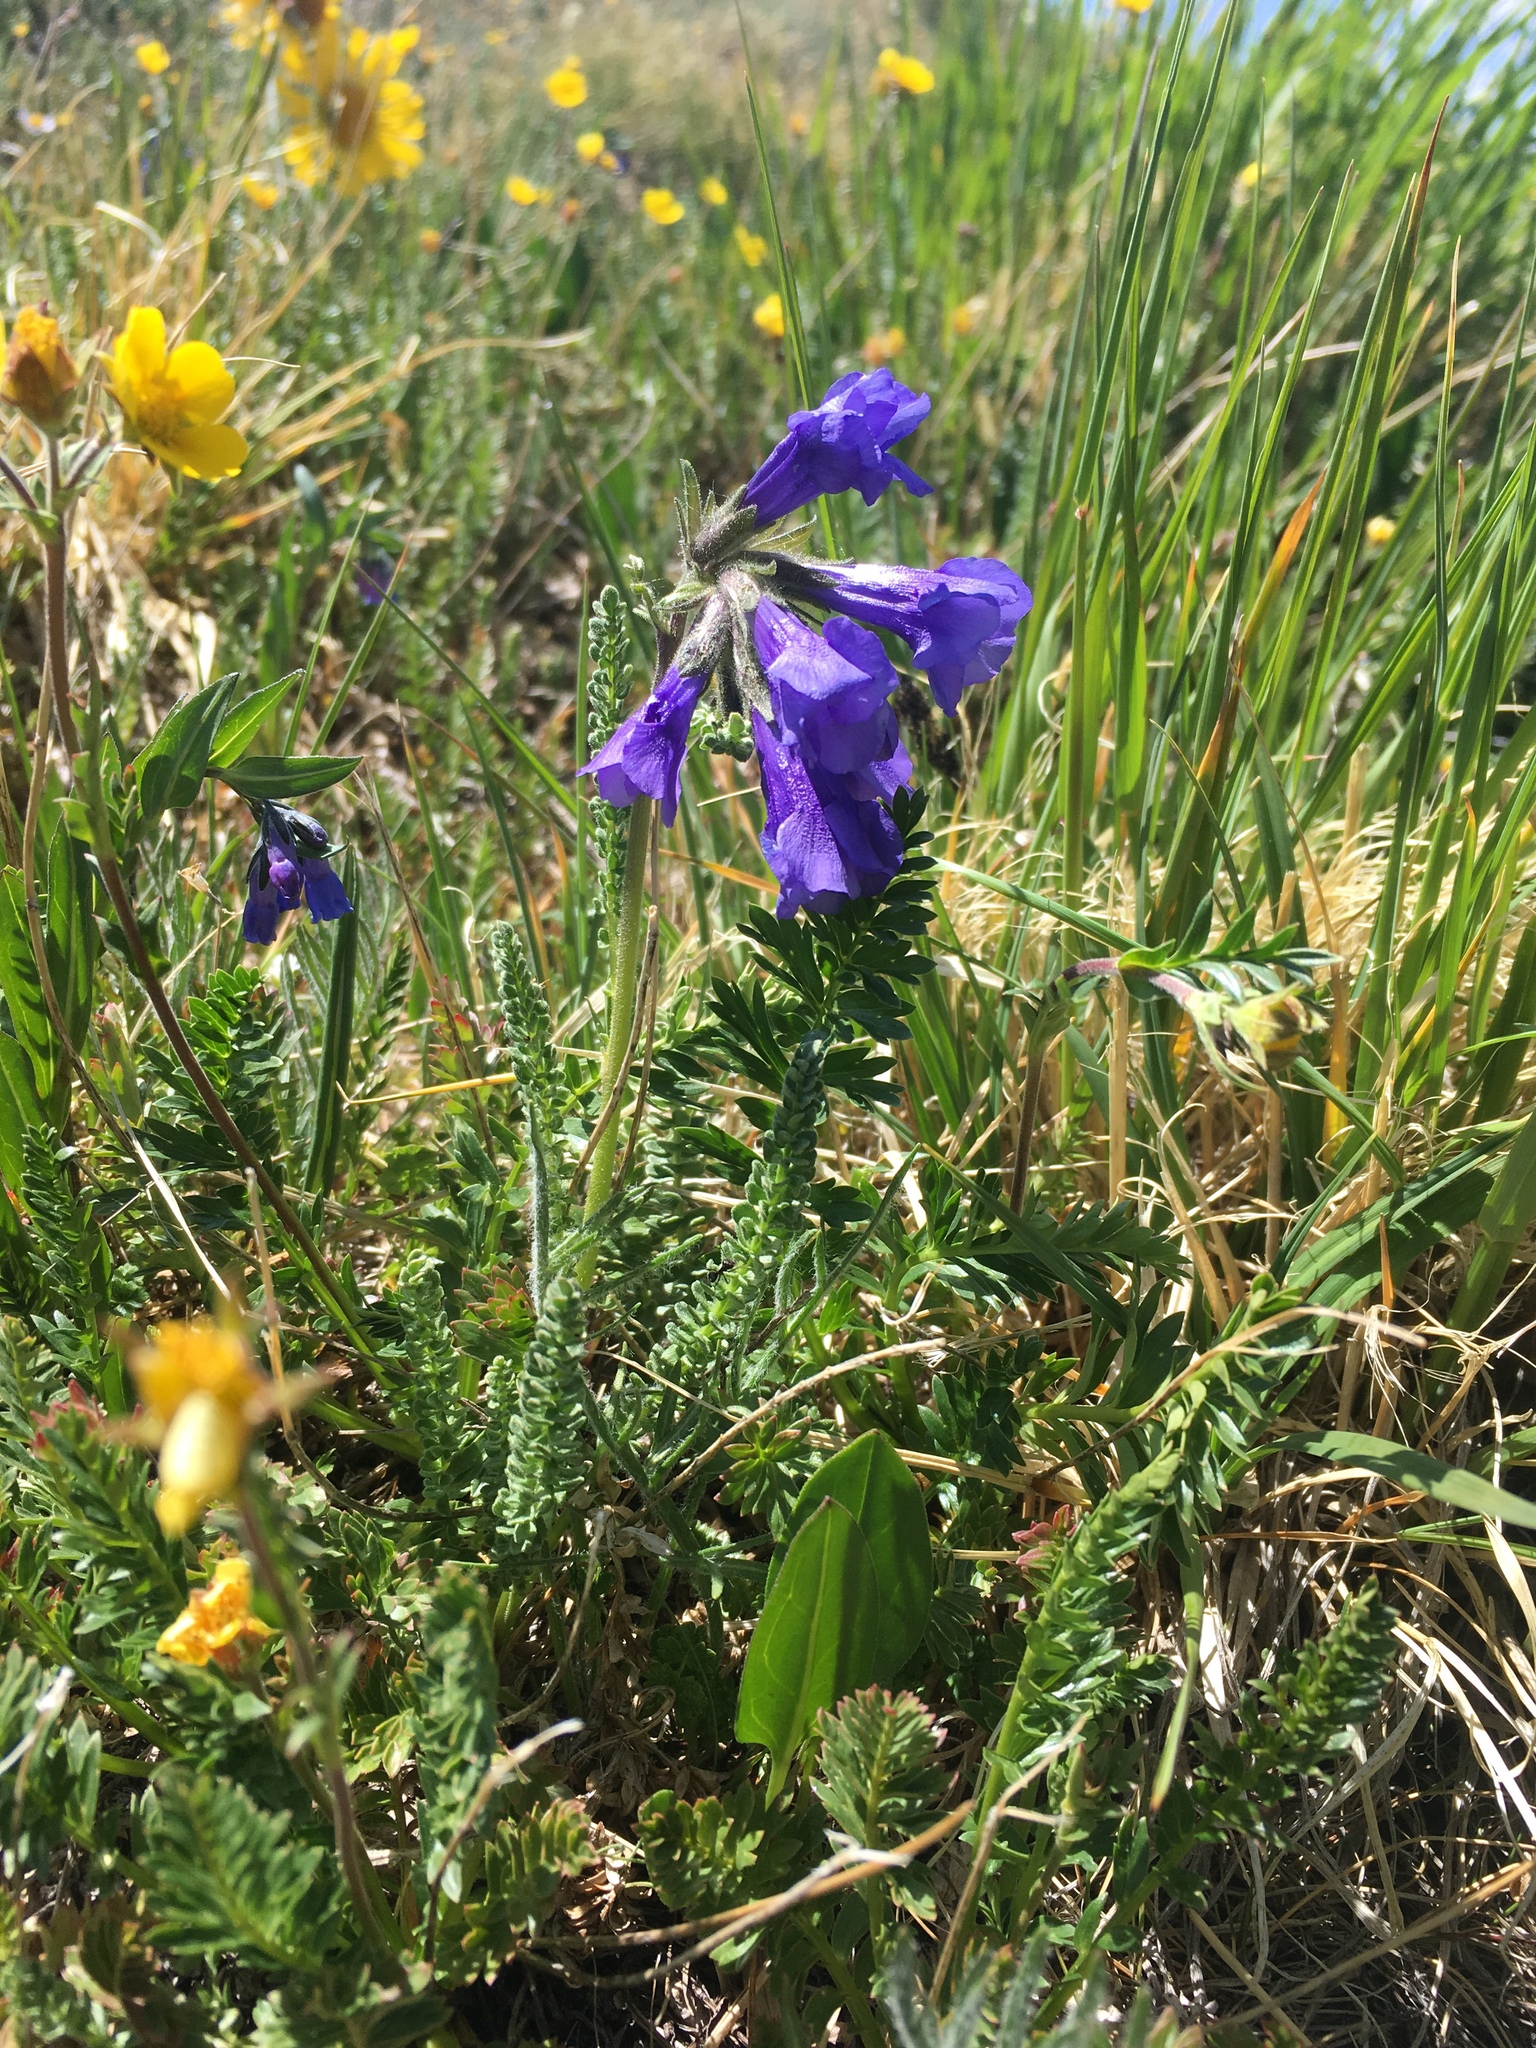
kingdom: Plantae
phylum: Tracheophyta
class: Magnoliopsida
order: Ericales
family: Polemoniaceae
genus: Polemonium
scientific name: Polemonium viscosum
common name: Skunk jacob's-ladder
